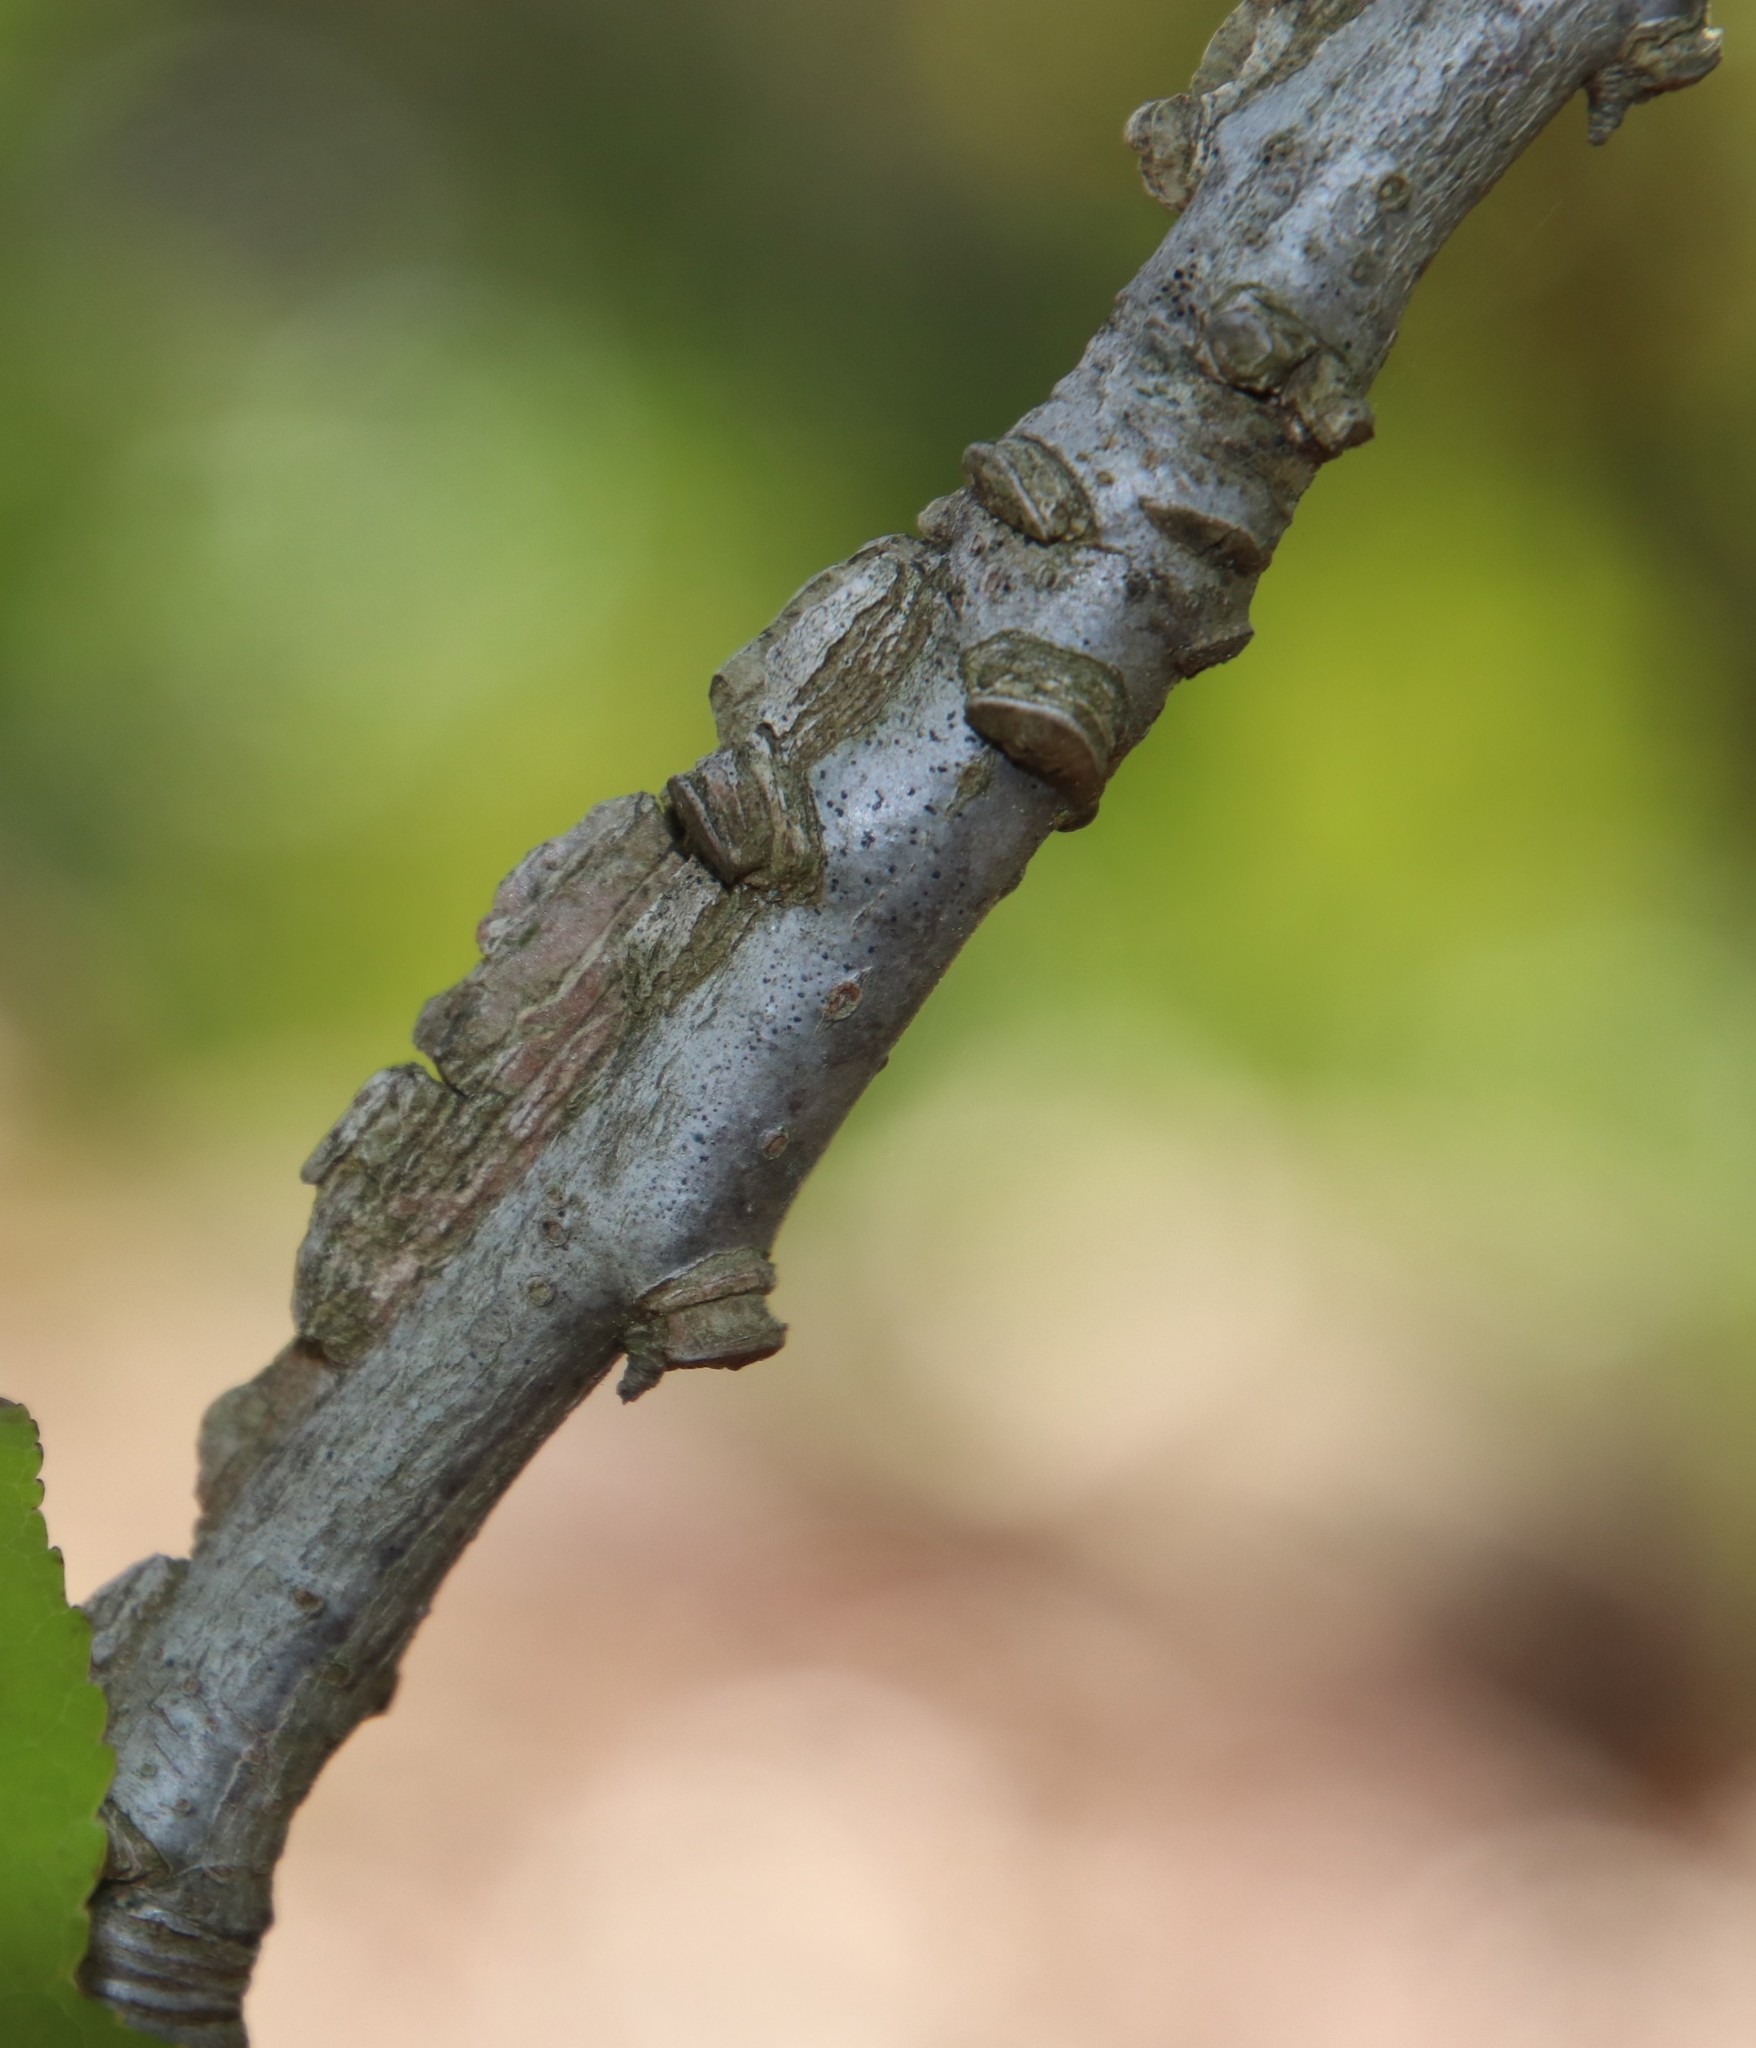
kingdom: Plantae
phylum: Tracheophyta
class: Magnoliopsida
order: Saxifragales
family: Altingiaceae
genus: Liquidambar
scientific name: Liquidambar styraciflua
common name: Sweet gum
